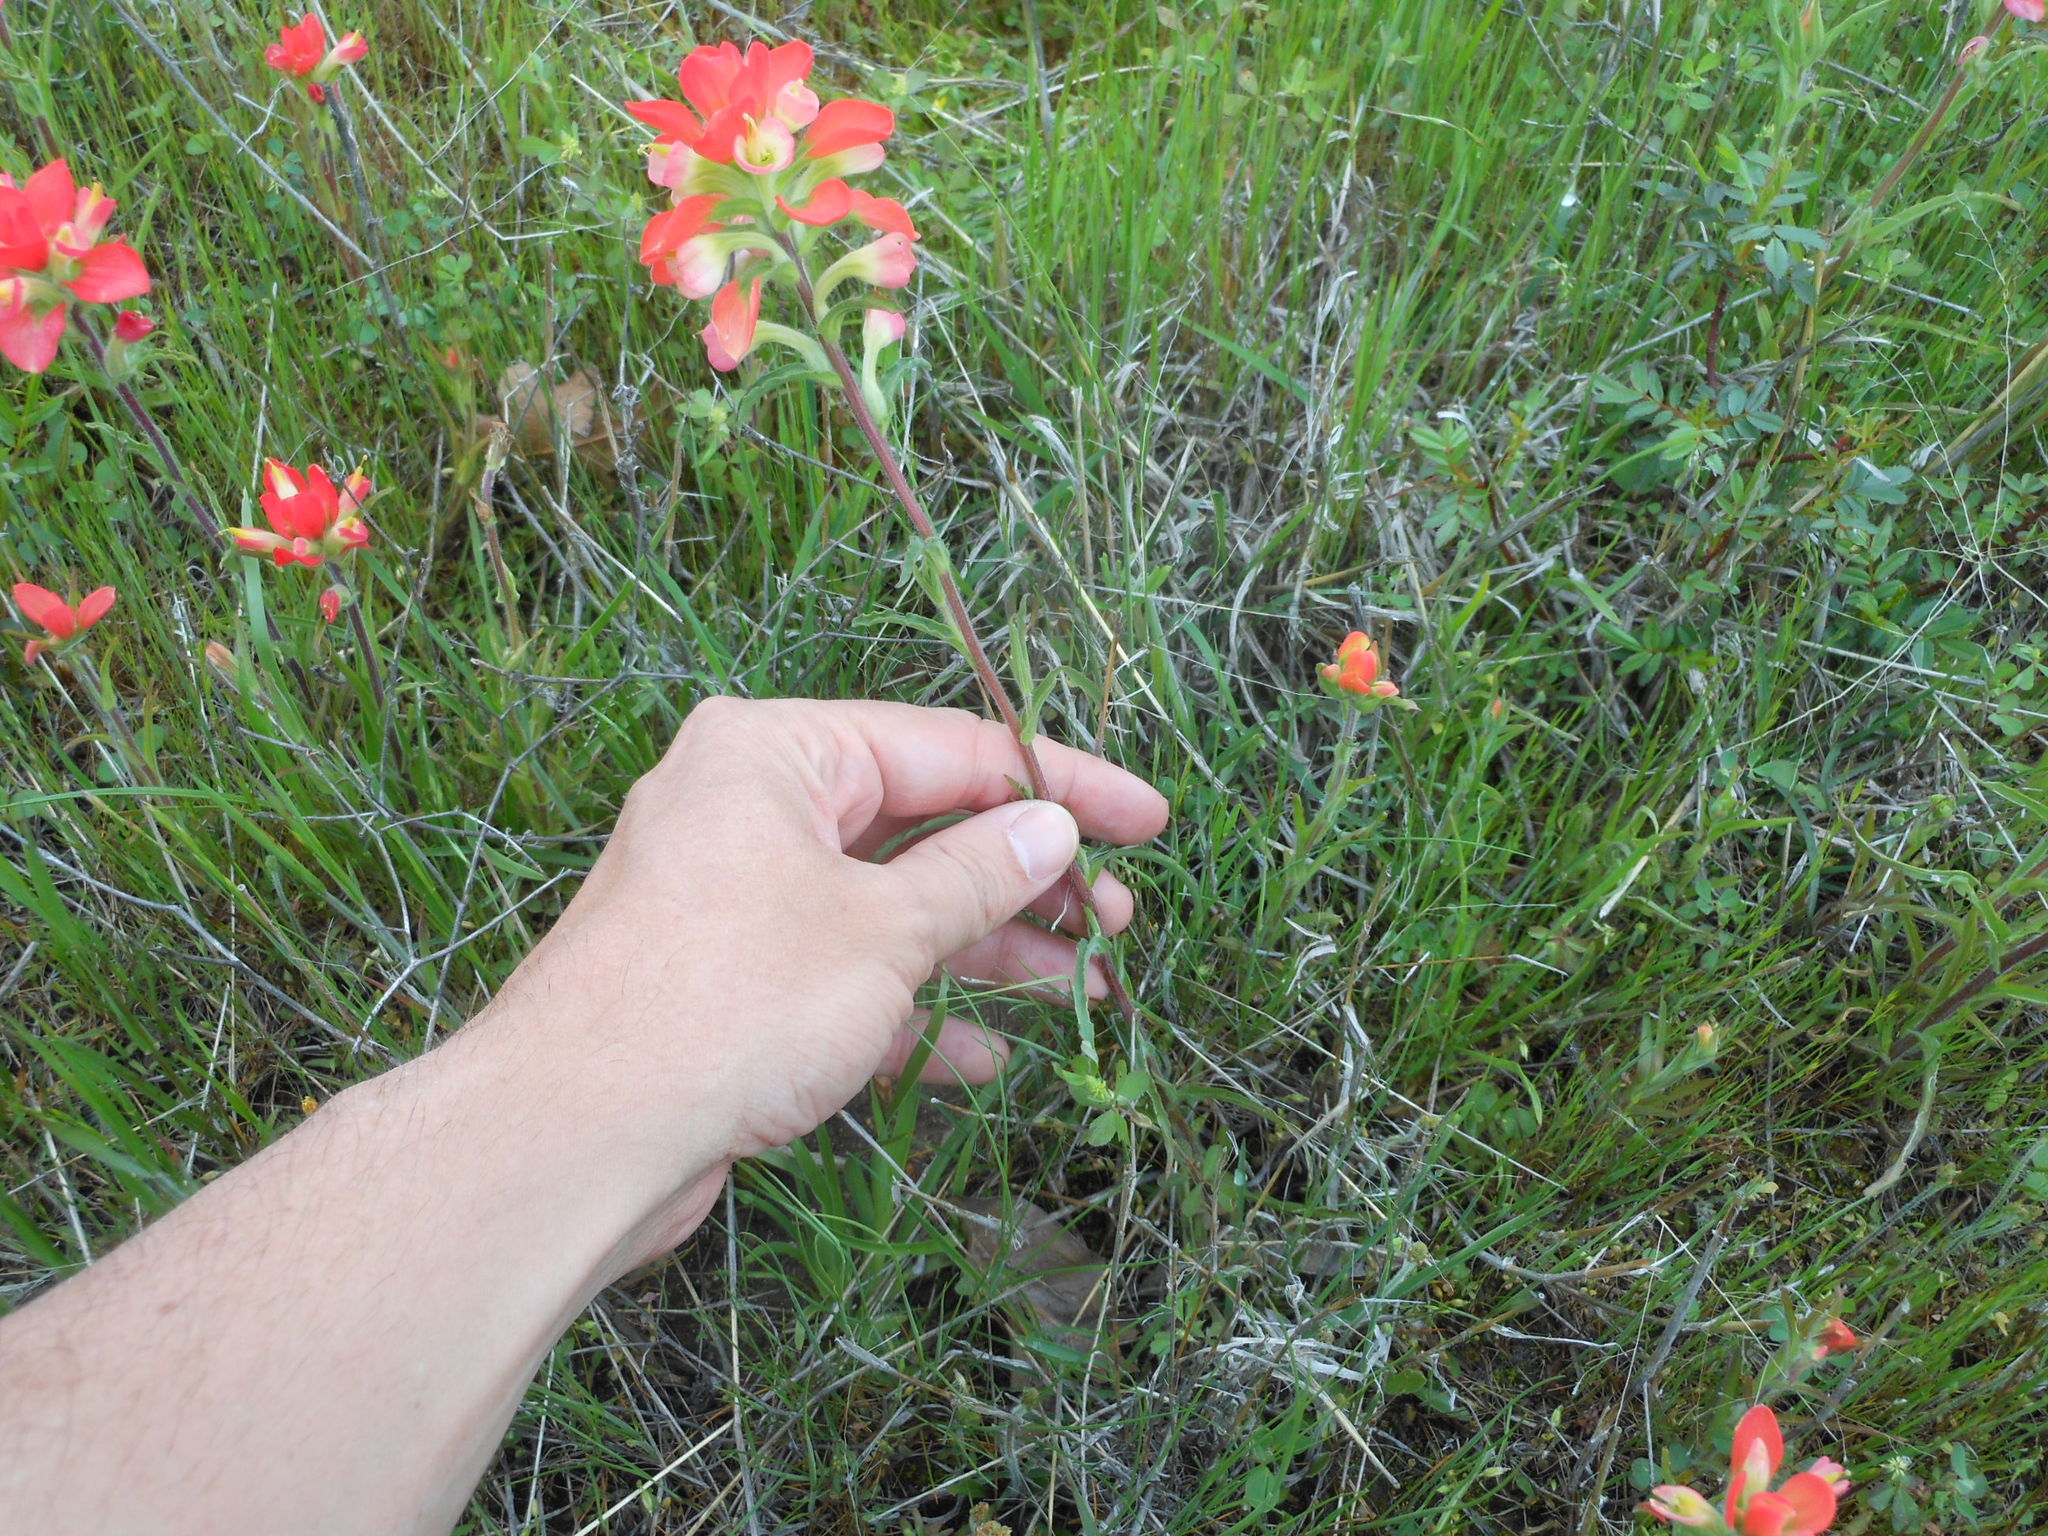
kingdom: Plantae
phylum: Tracheophyta
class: Magnoliopsida
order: Lamiales
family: Orobanchaceae
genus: Castilleja
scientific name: Castilleja indivisa
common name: Texas paintbrush
